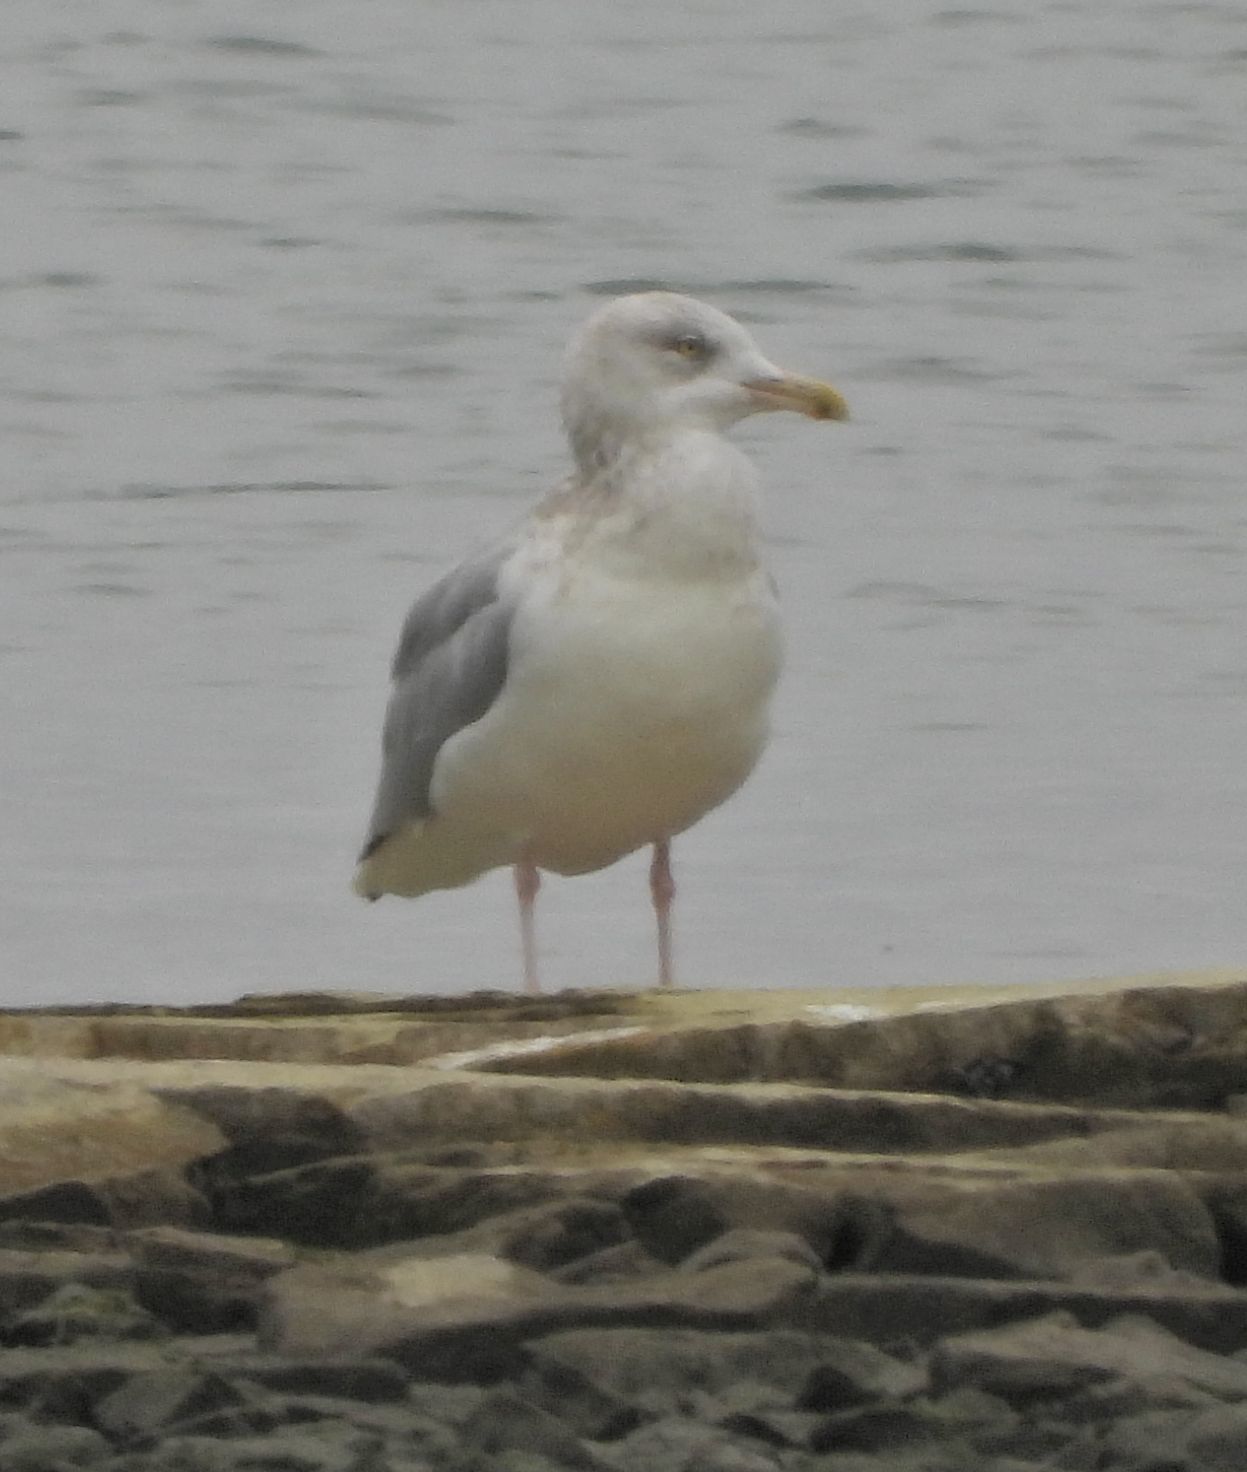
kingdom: Animalia
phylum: Chordata
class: Aves
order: Charadriiformes
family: Laridae
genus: Larus
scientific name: Larus argentatus
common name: Herring gull
